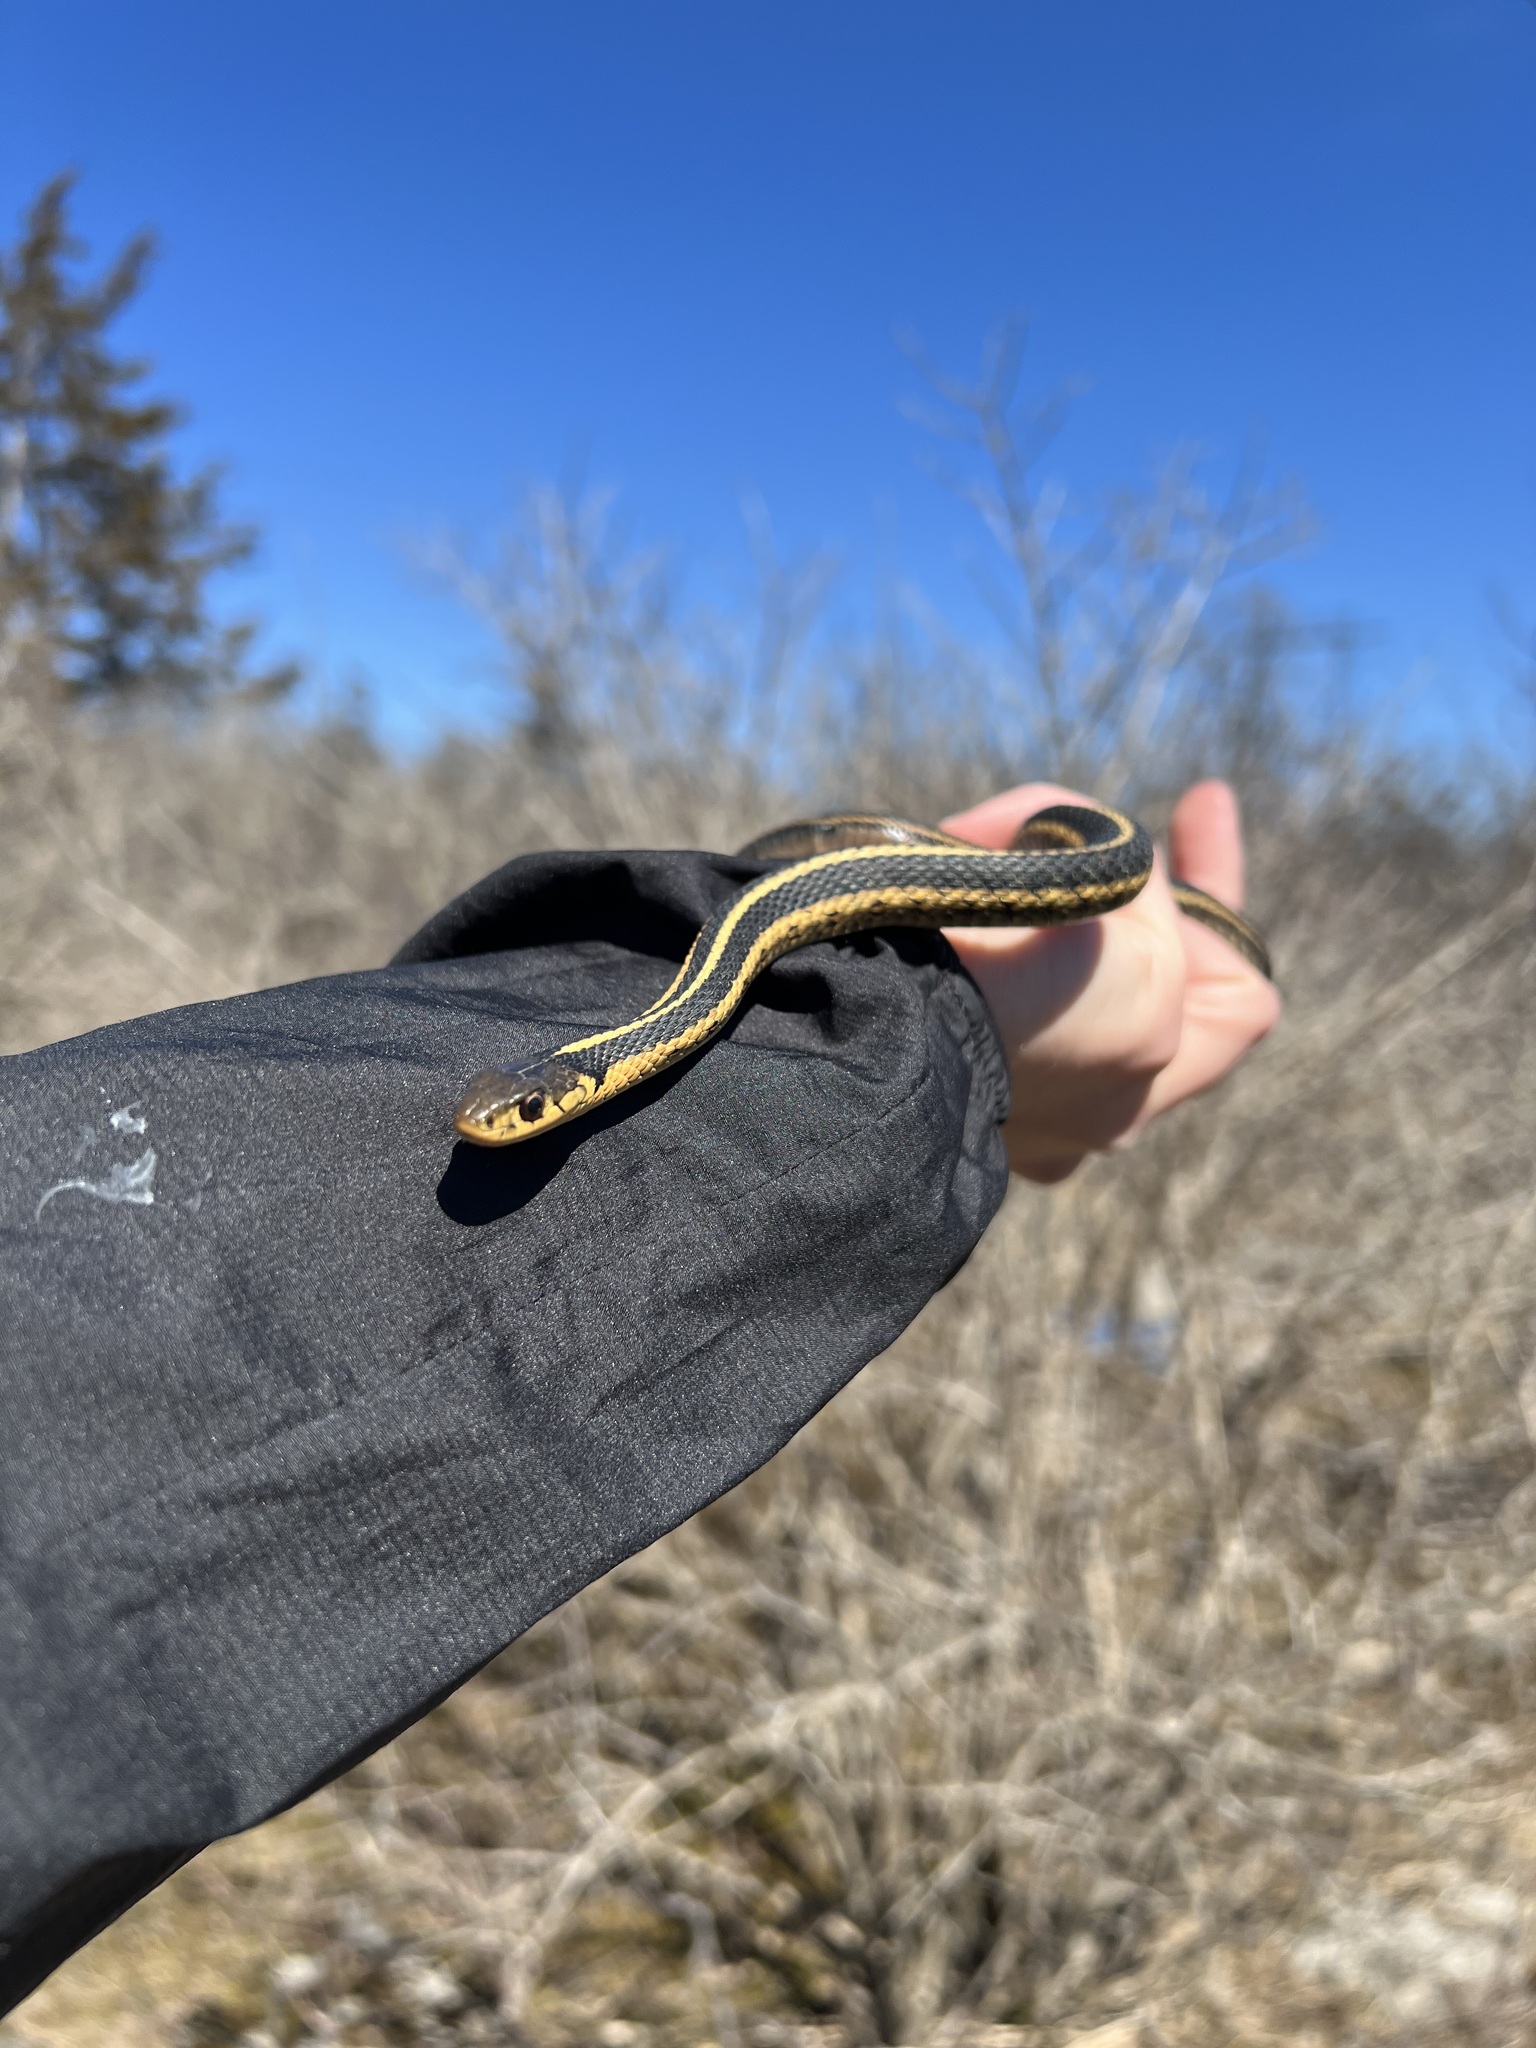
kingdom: Animalia
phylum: Chordata
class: Squamata
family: Colubridae
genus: Thamnophis
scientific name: Thamnophis sirtalis
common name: Common garter snake
